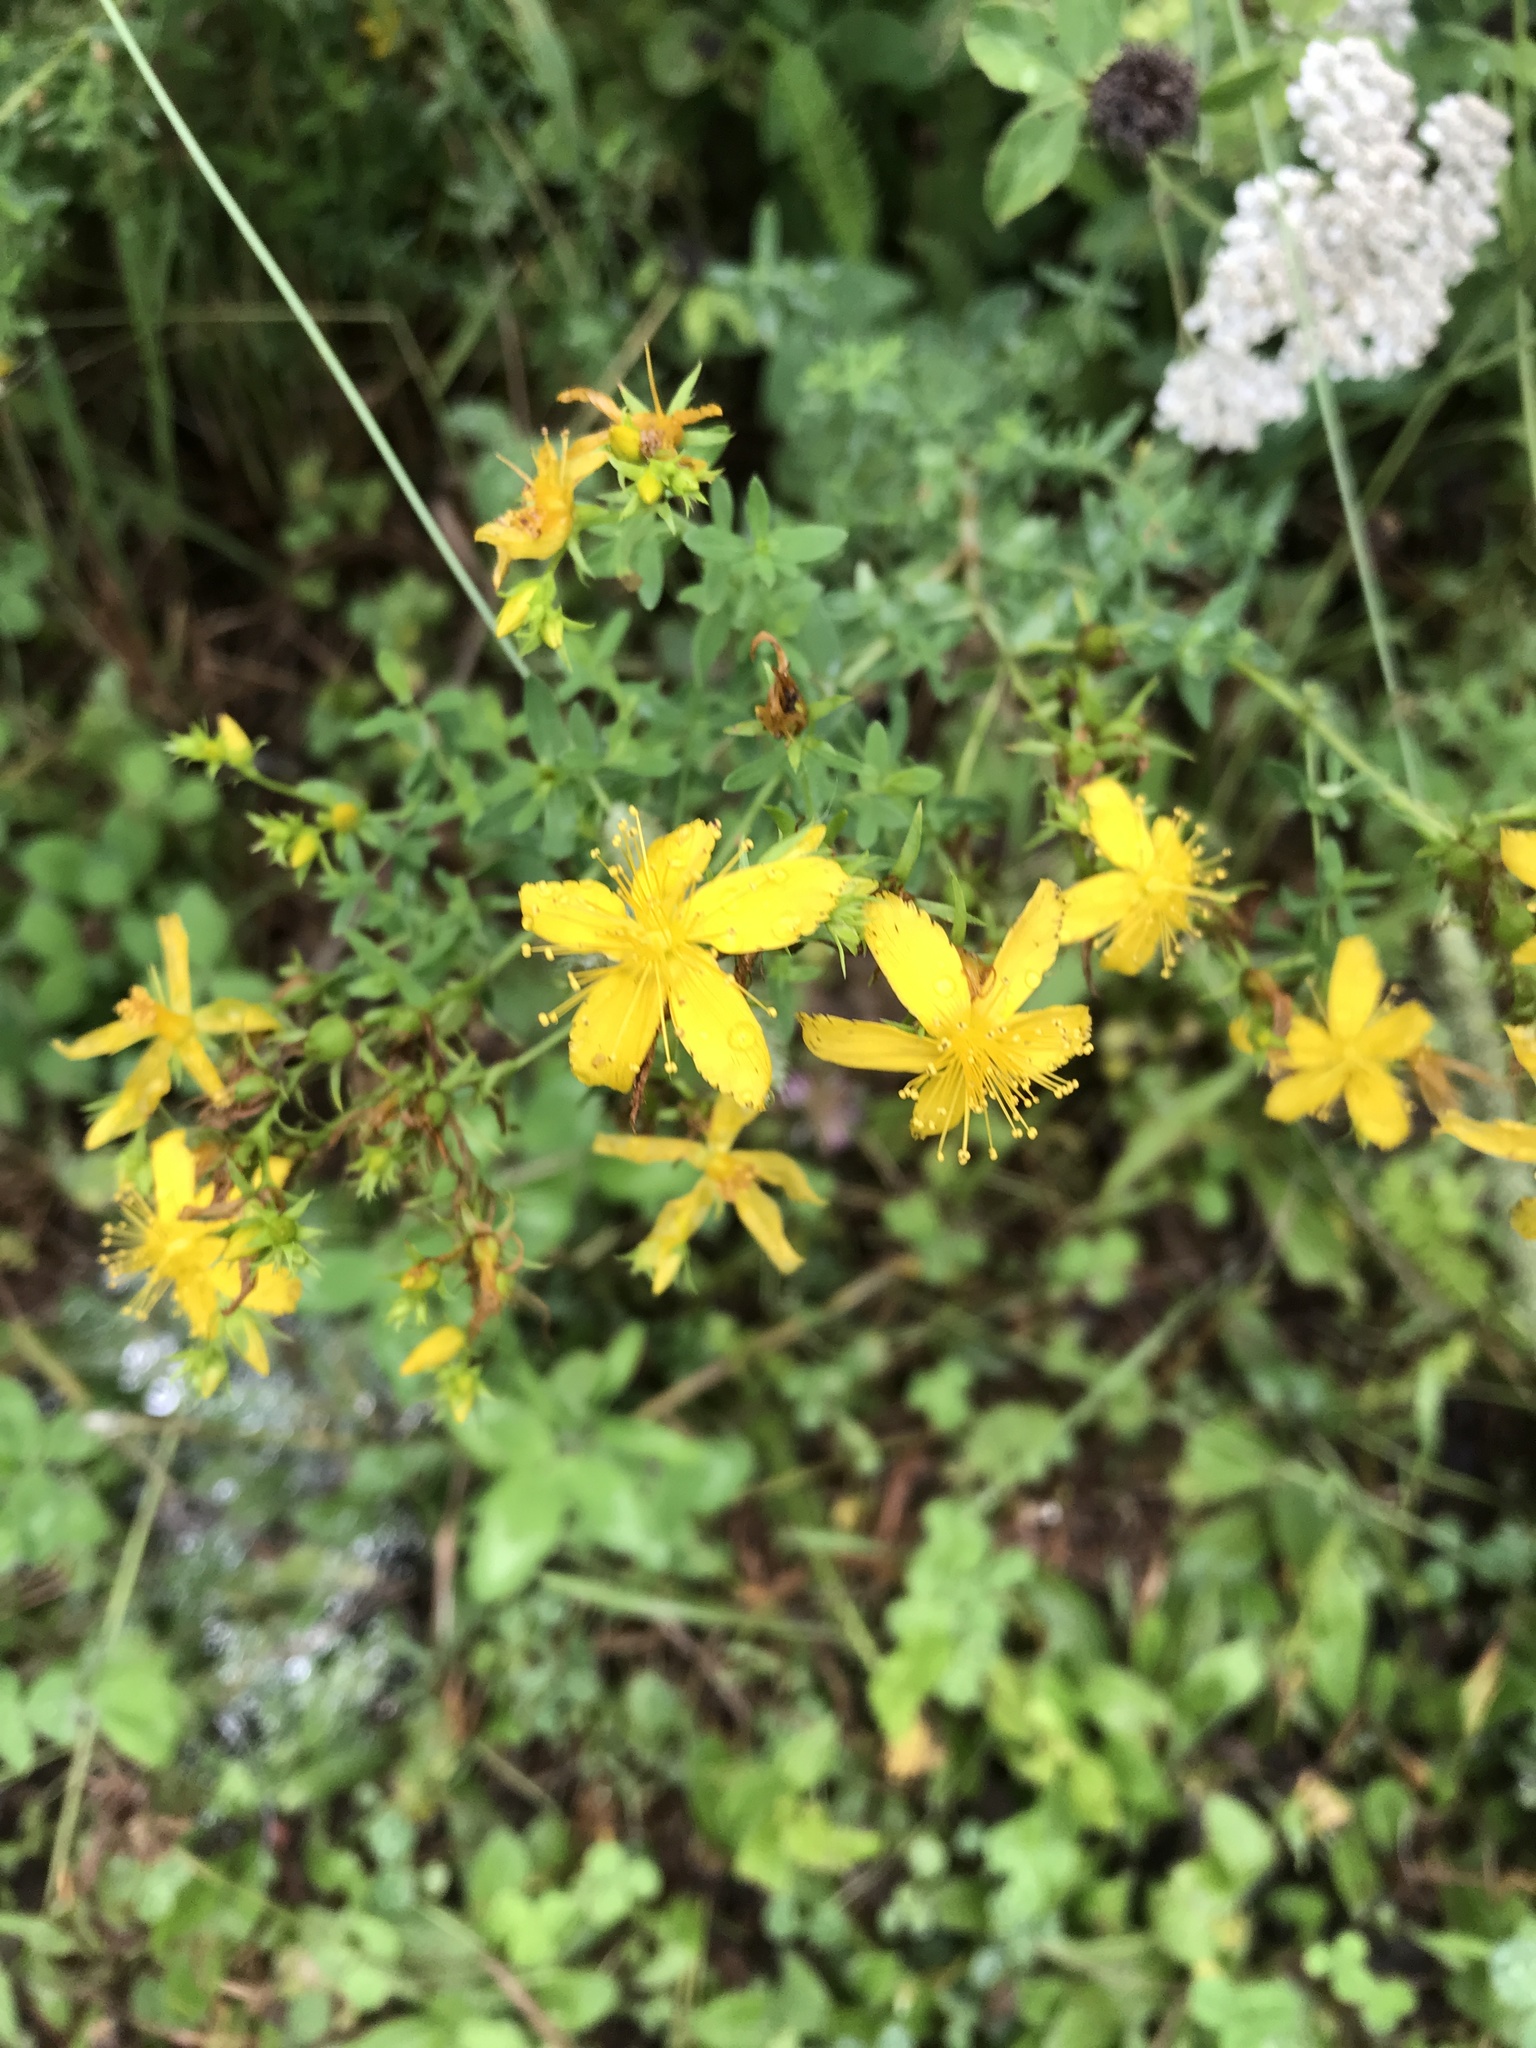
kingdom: Plantae
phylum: Tracheophyta
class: Magnoliopsida
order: Malpighiales
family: Hypericaceae
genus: Hypericum
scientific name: Hypericum perforatum
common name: Common st. johnswort
